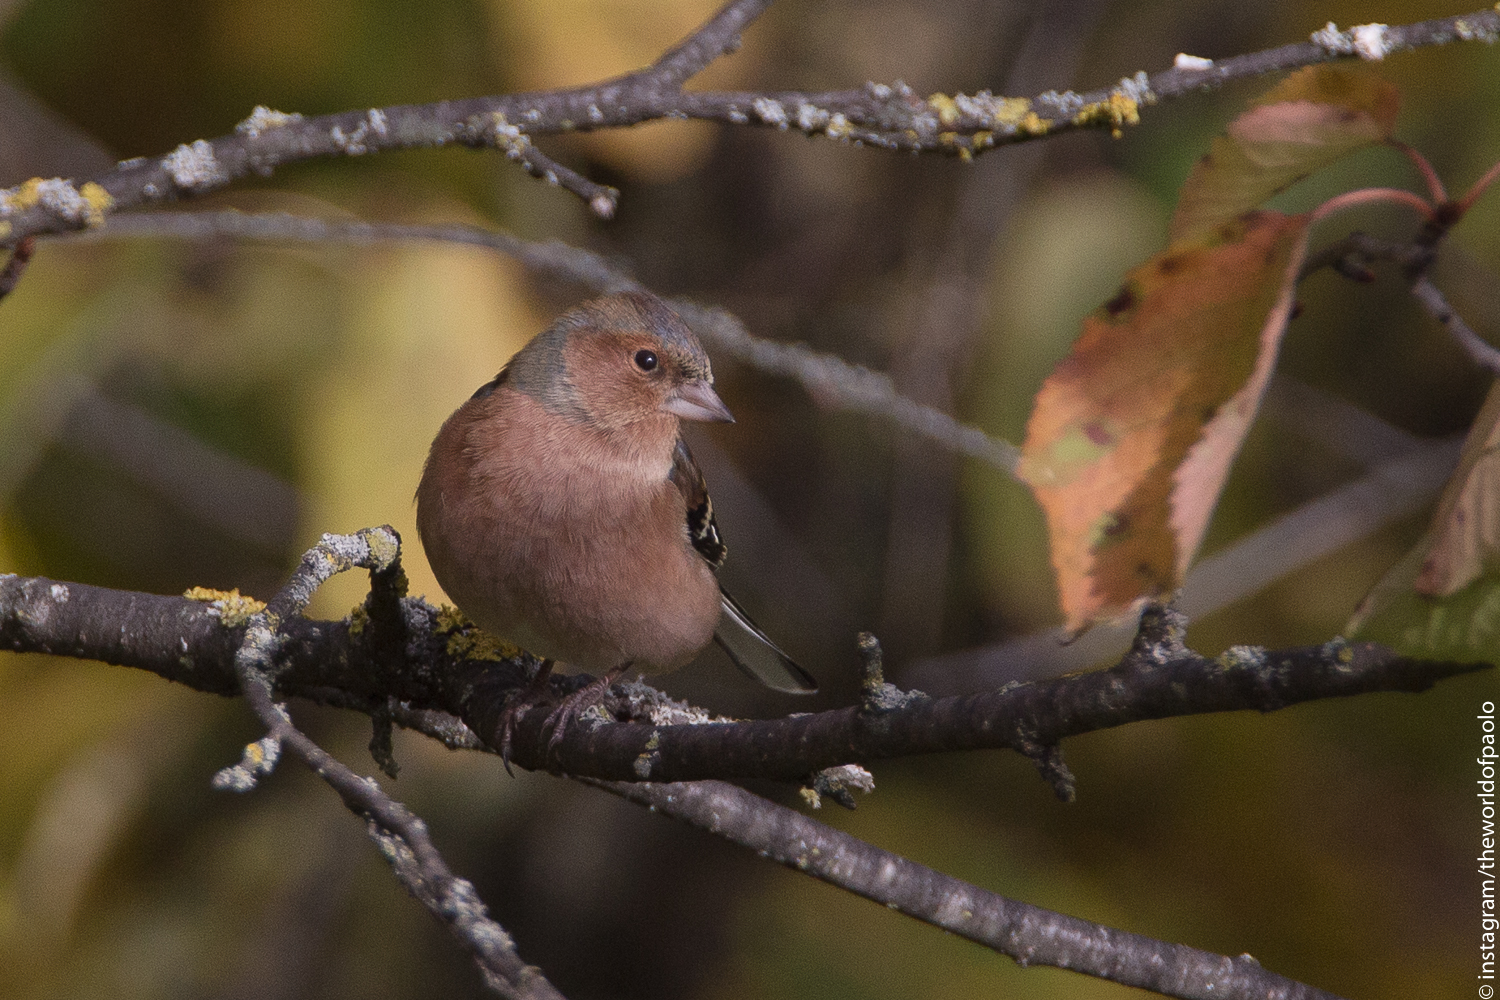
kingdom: Animalia
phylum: Chordata
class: Aves
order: Passeriformes
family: Fringillidae
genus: Fringilla
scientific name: Fringilla coelebs
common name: Common chaffinch
